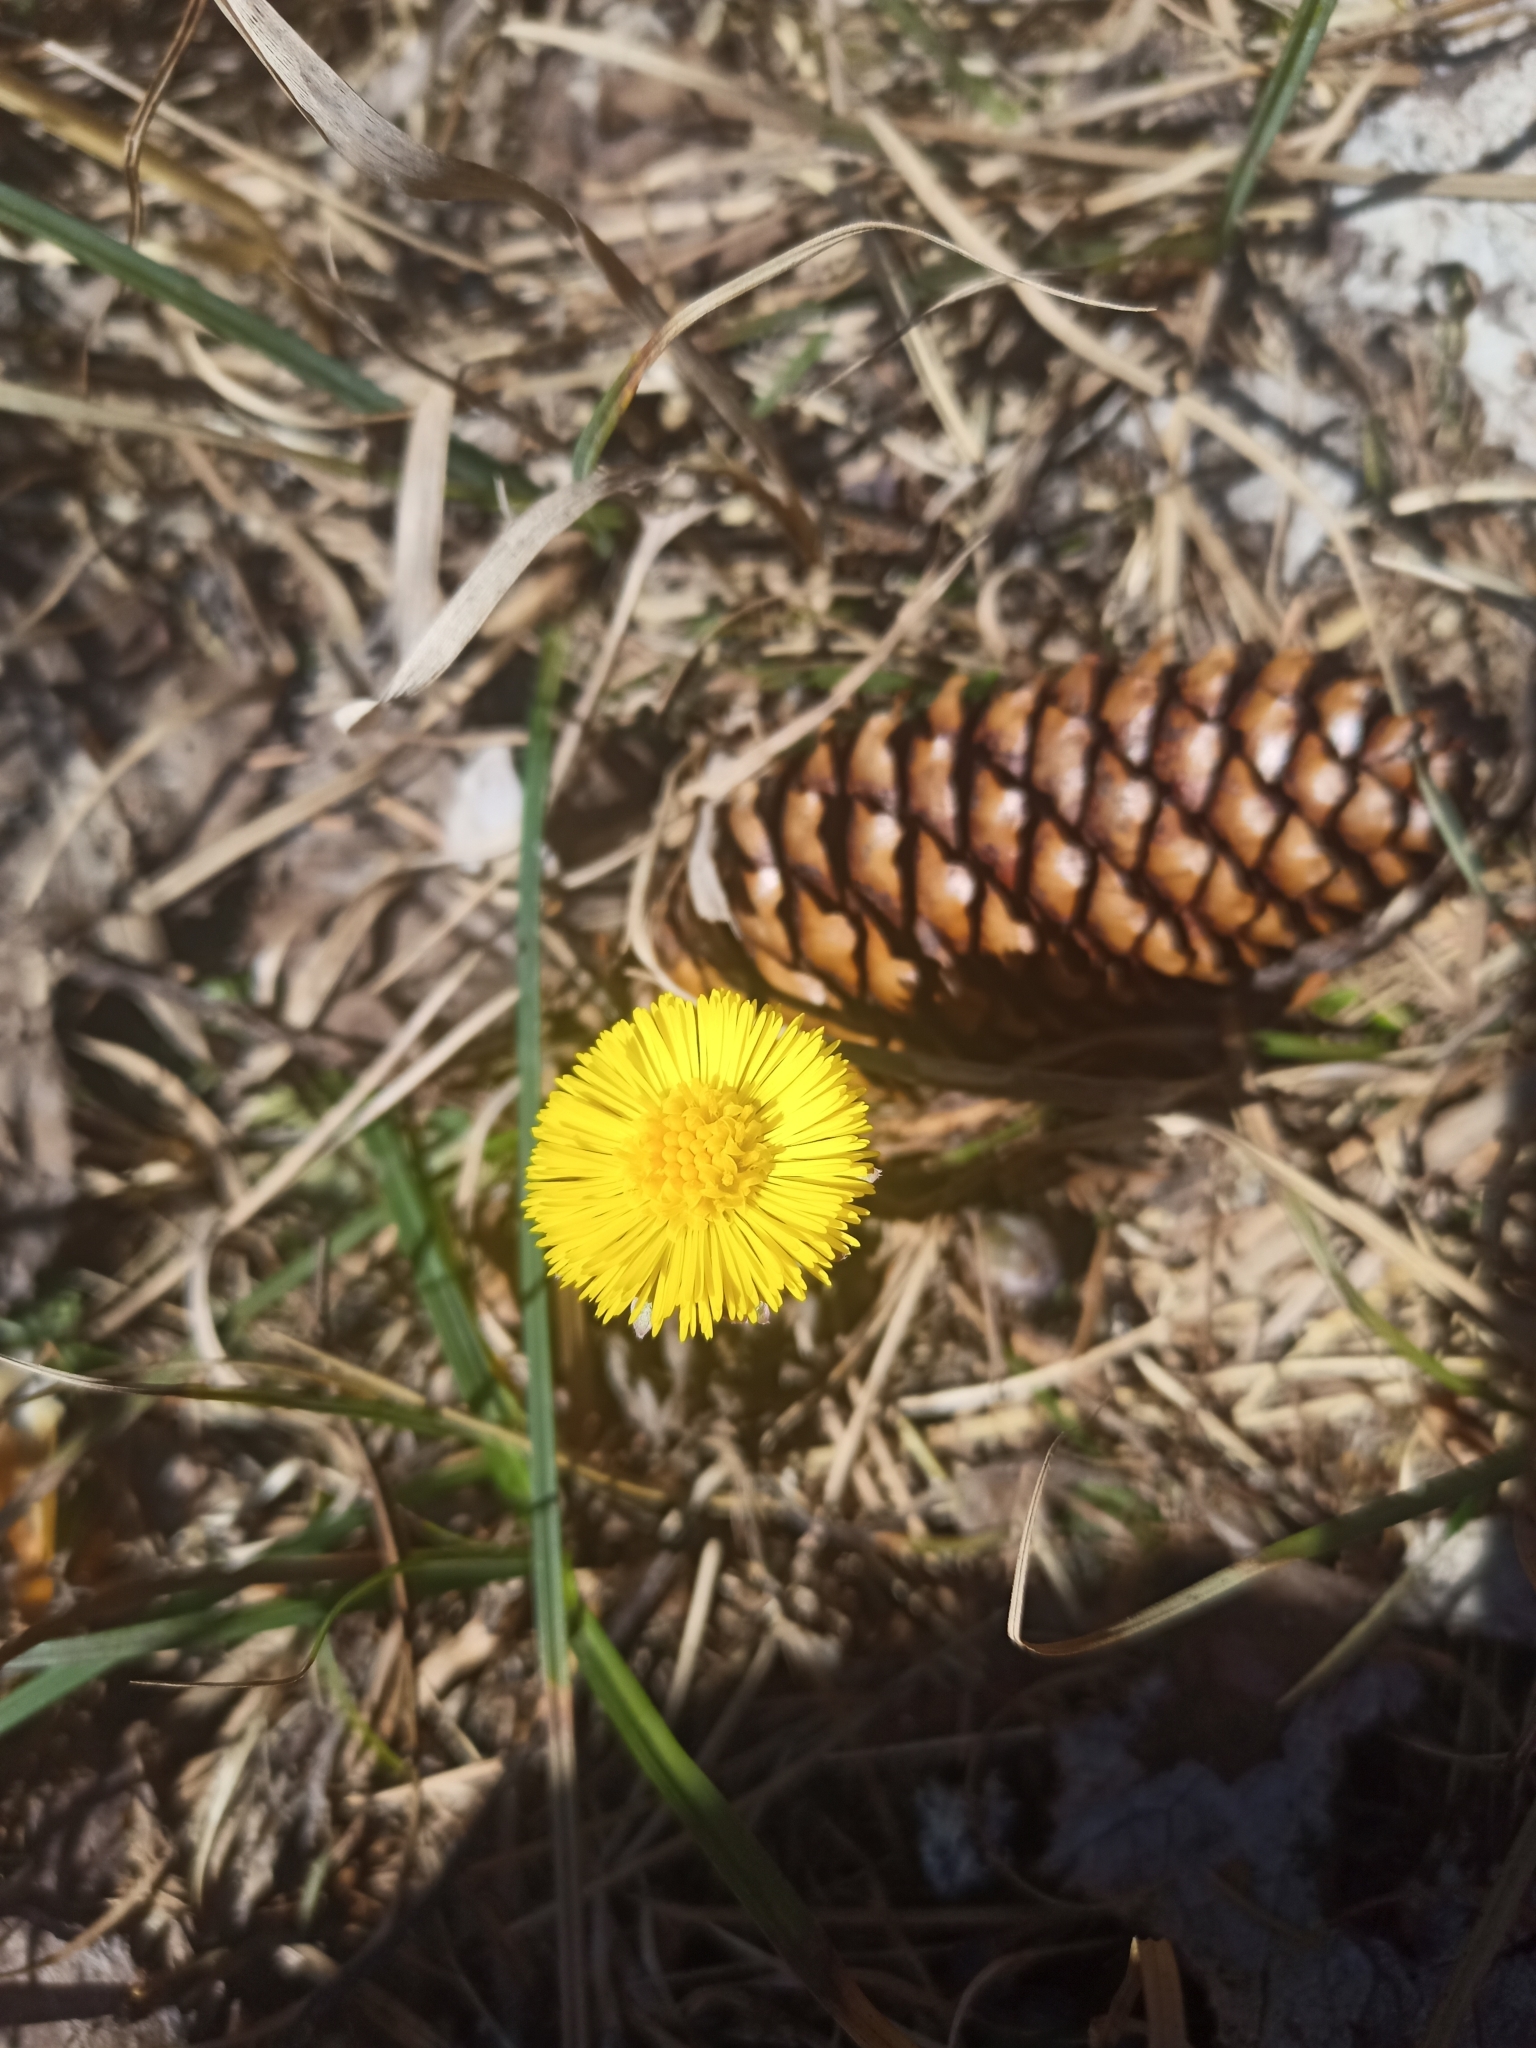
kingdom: Plantae
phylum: Tracheophyta
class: Magnoliopsida
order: Asterales
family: Asteraceae
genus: Tussilago
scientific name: Tussilago farfara
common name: Coltsfoot
